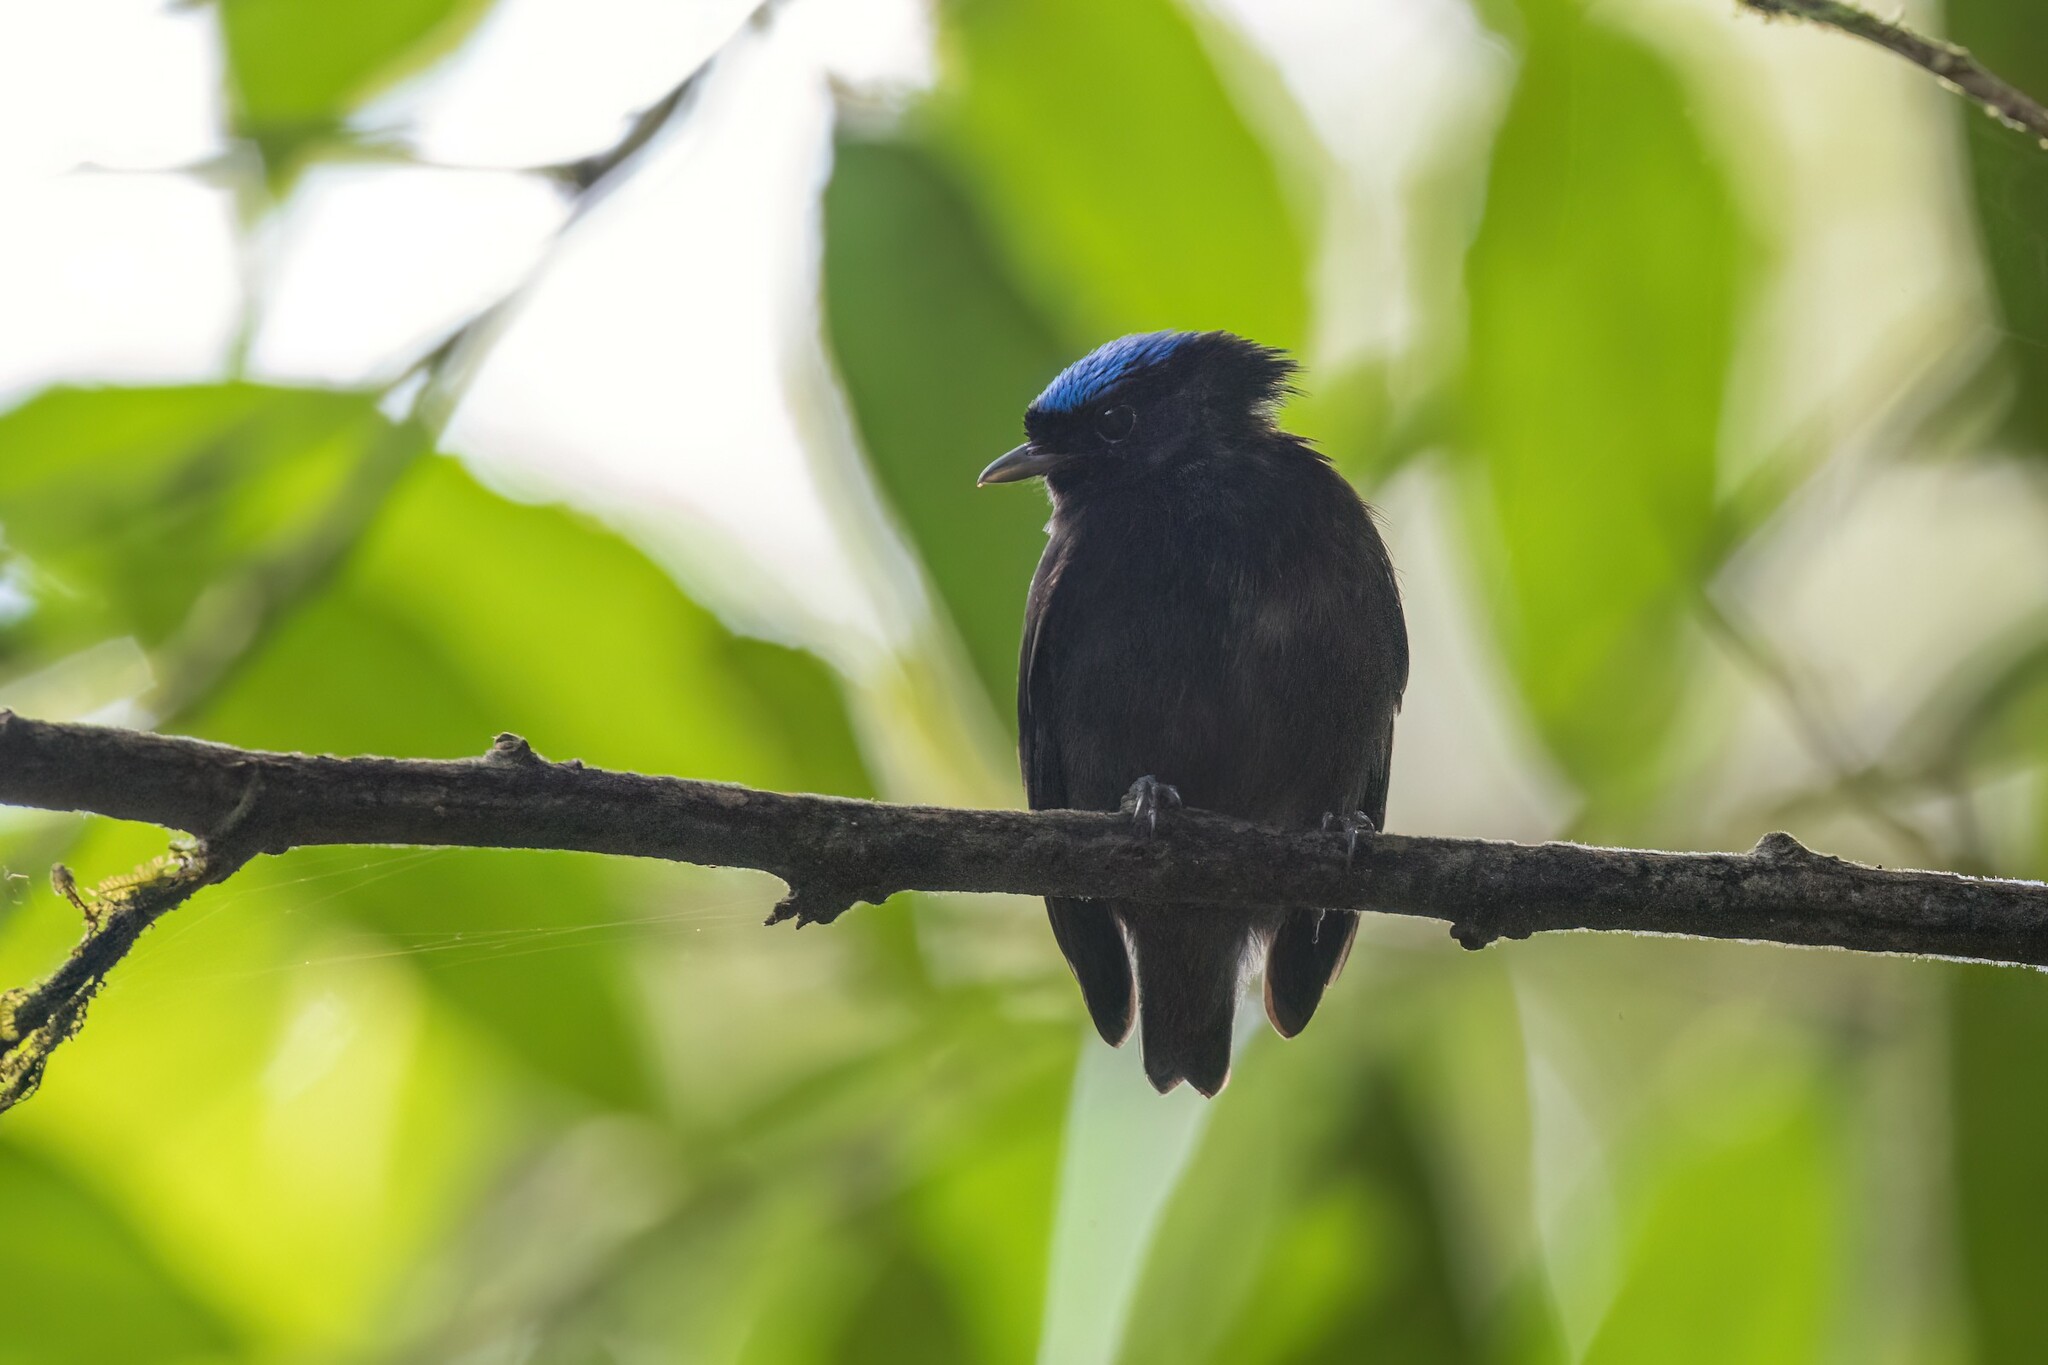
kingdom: Animalia
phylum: Chordata
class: Aves
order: Passeriformes
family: Pipridae
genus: Lepidothrix
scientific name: Lepidothrix coronata
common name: Blue-crowned manakin
